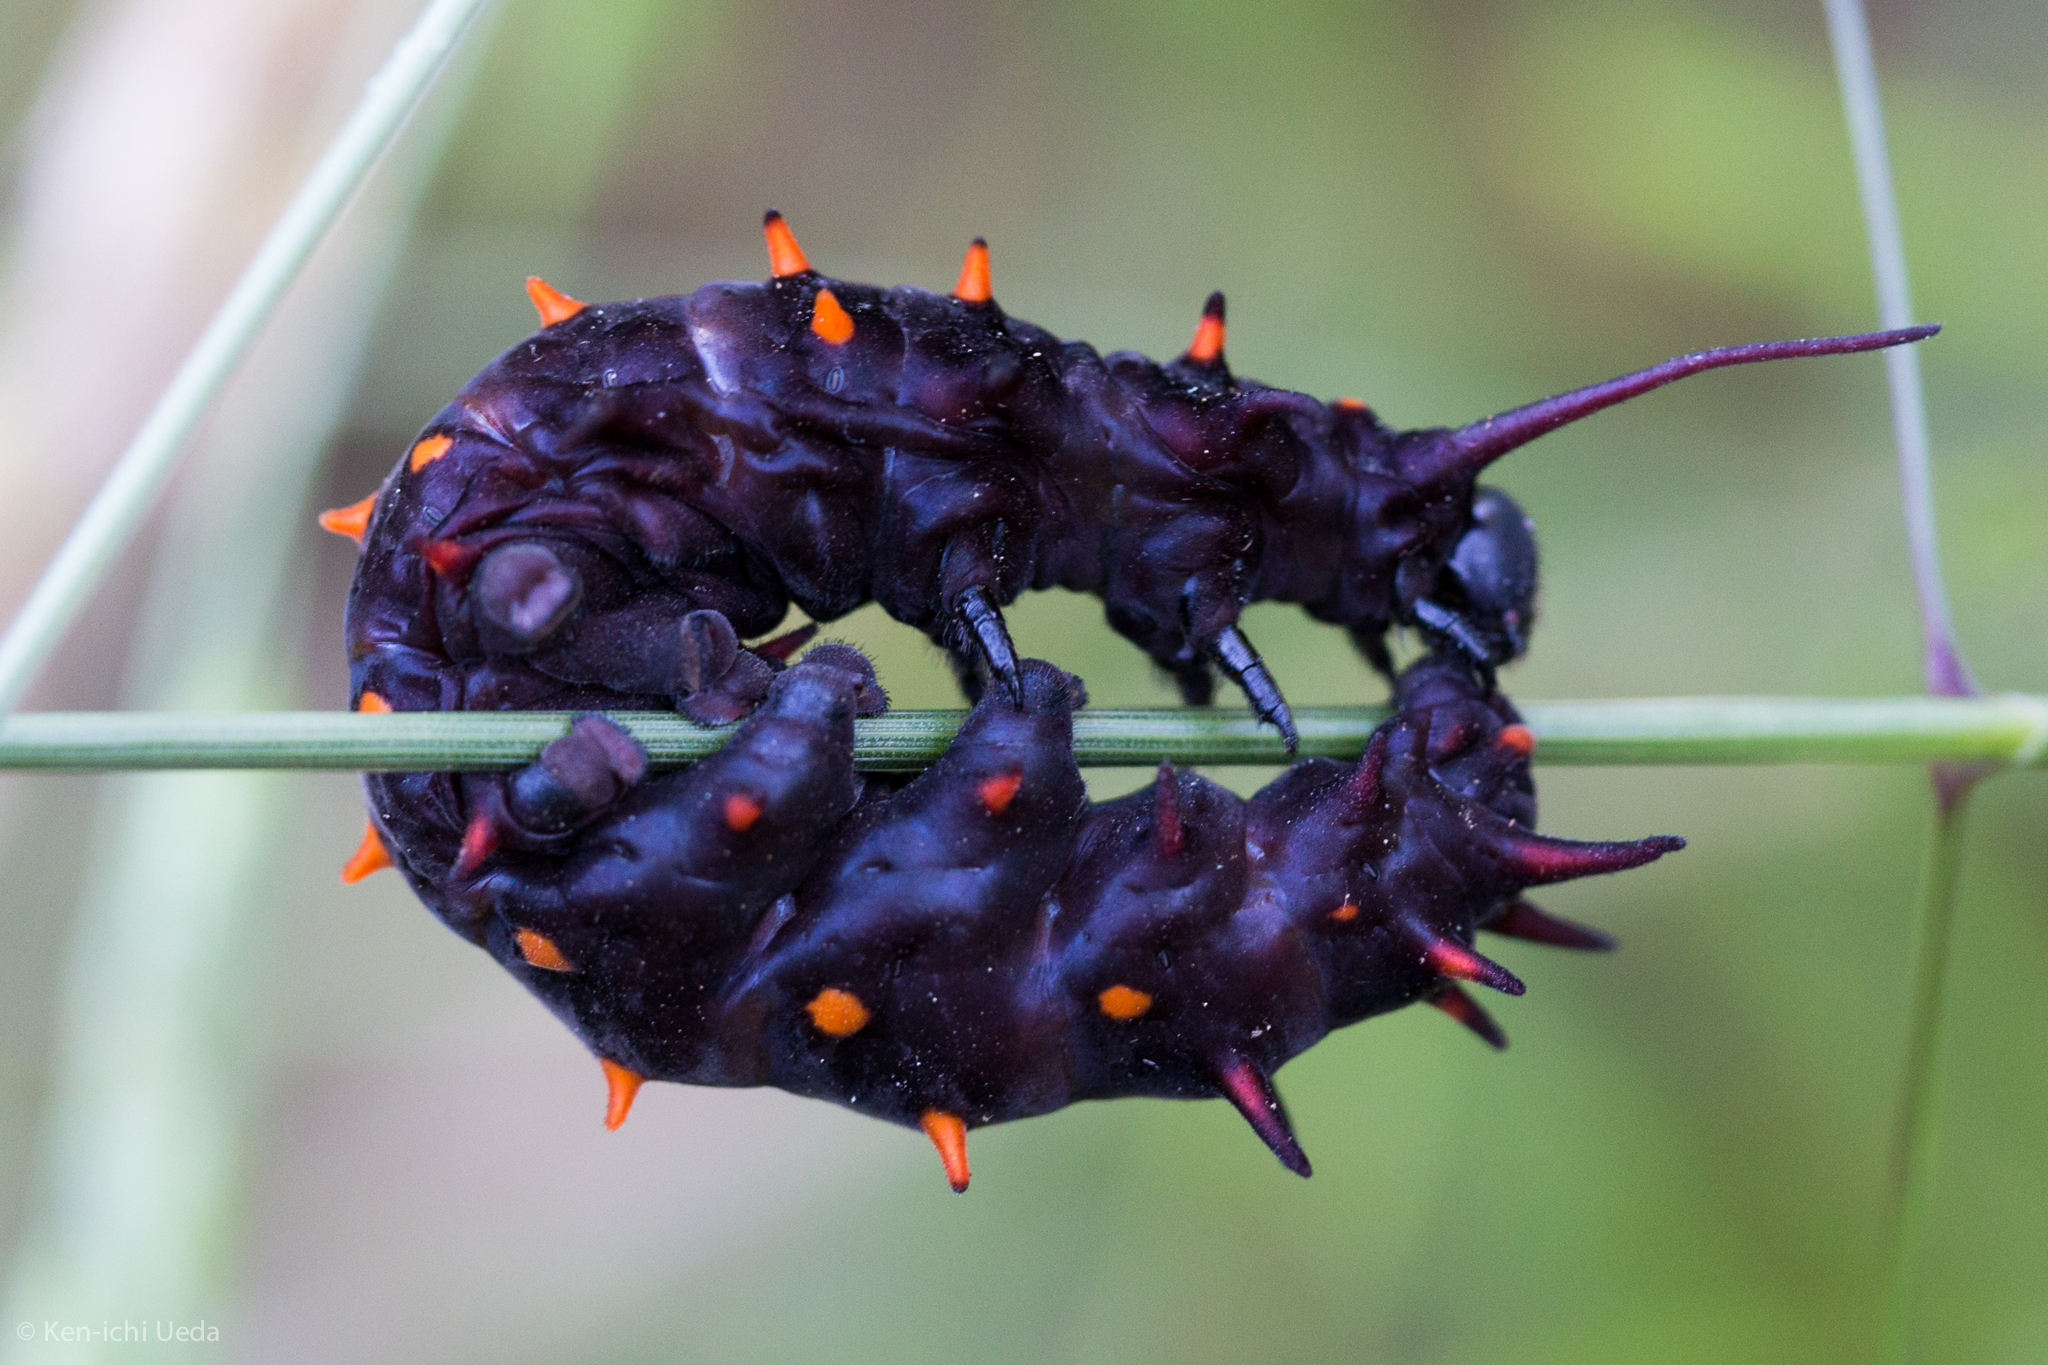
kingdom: Animalia
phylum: Arthropoda
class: Insecta
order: Lepidoptera
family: Papilionidae
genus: Battus
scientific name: Battus philenor
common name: Pipevine swallowtail
